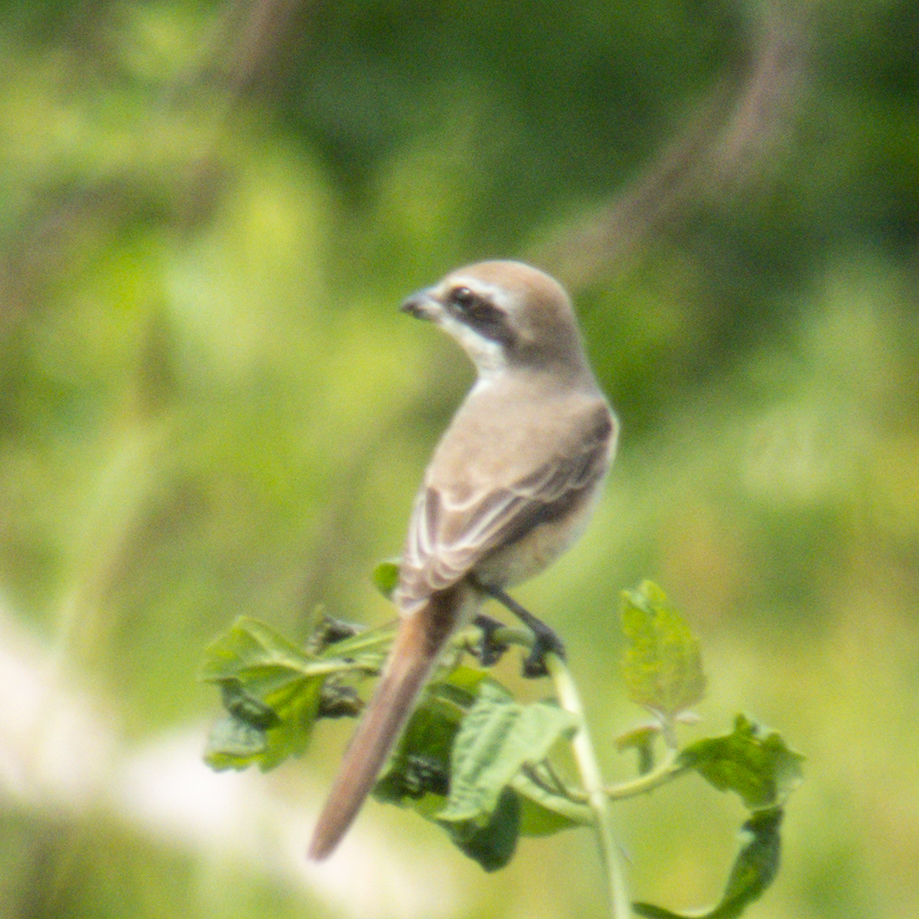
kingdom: Animalia
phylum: Chordata
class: Aves
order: Passeriformes
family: Laniidae
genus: Lanius
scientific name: Lanius cristatus
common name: Brown shrike
